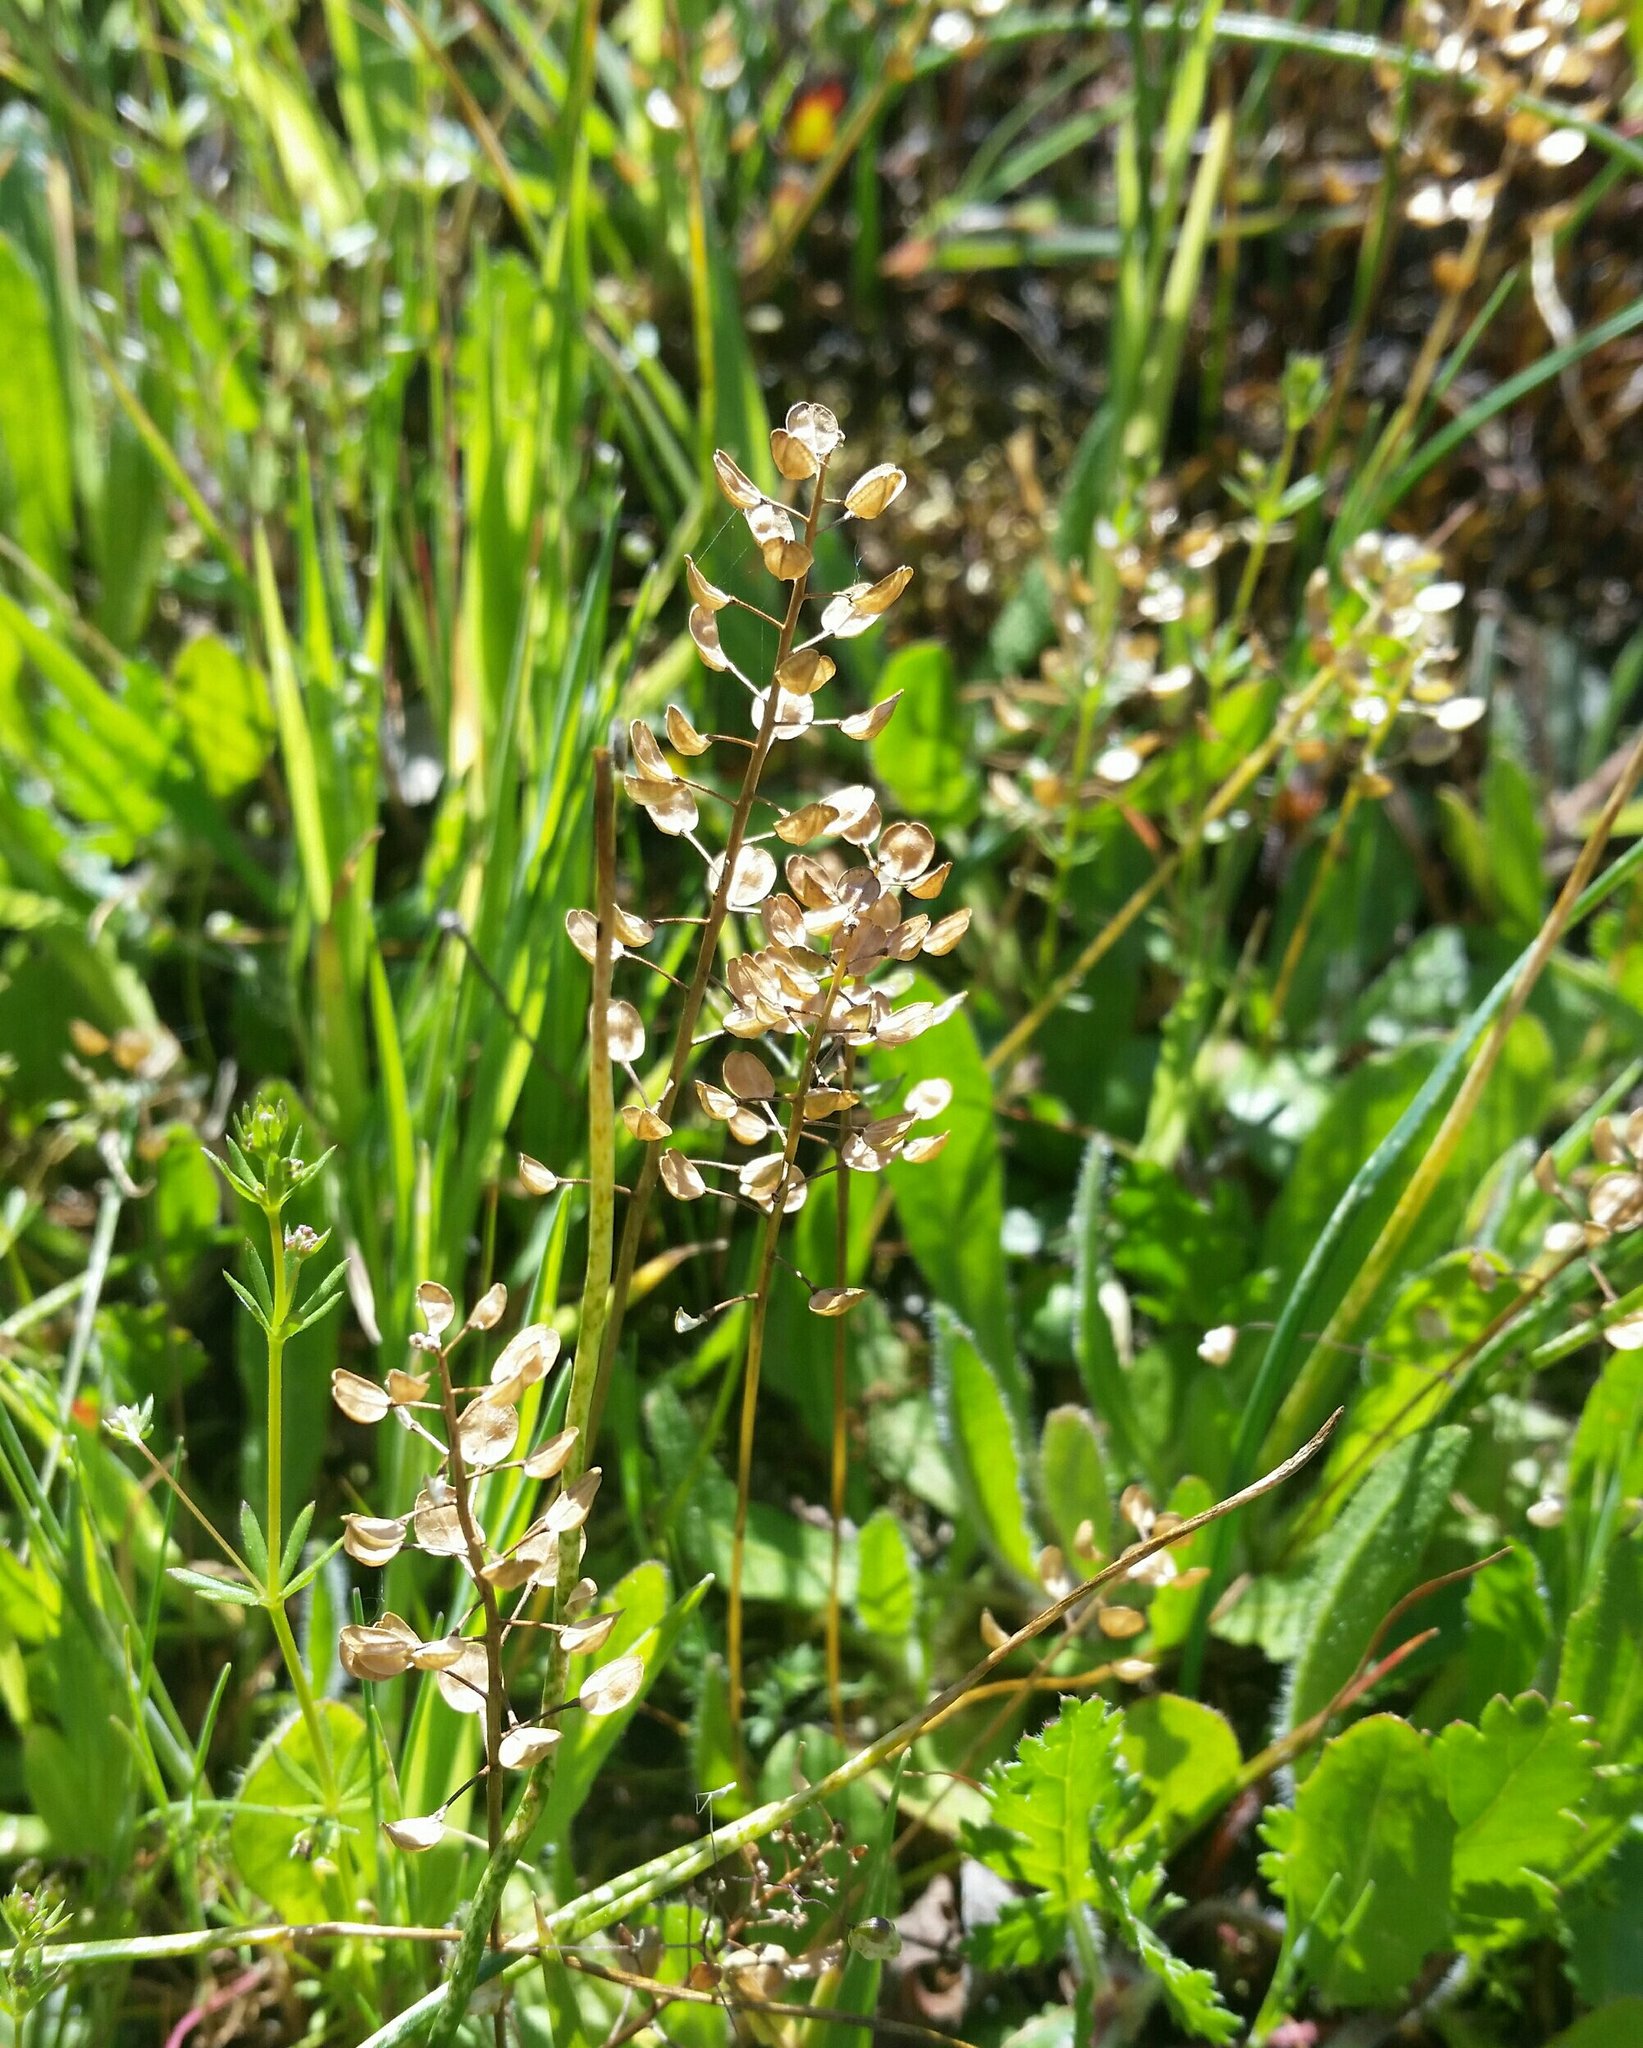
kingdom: Plantae
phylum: Tracheophyta
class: Magnoliopsida
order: Brassicales
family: Brassicaceae
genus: Teesdalia
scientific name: Teesdalia nudicaulis
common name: Shepherd's cress
